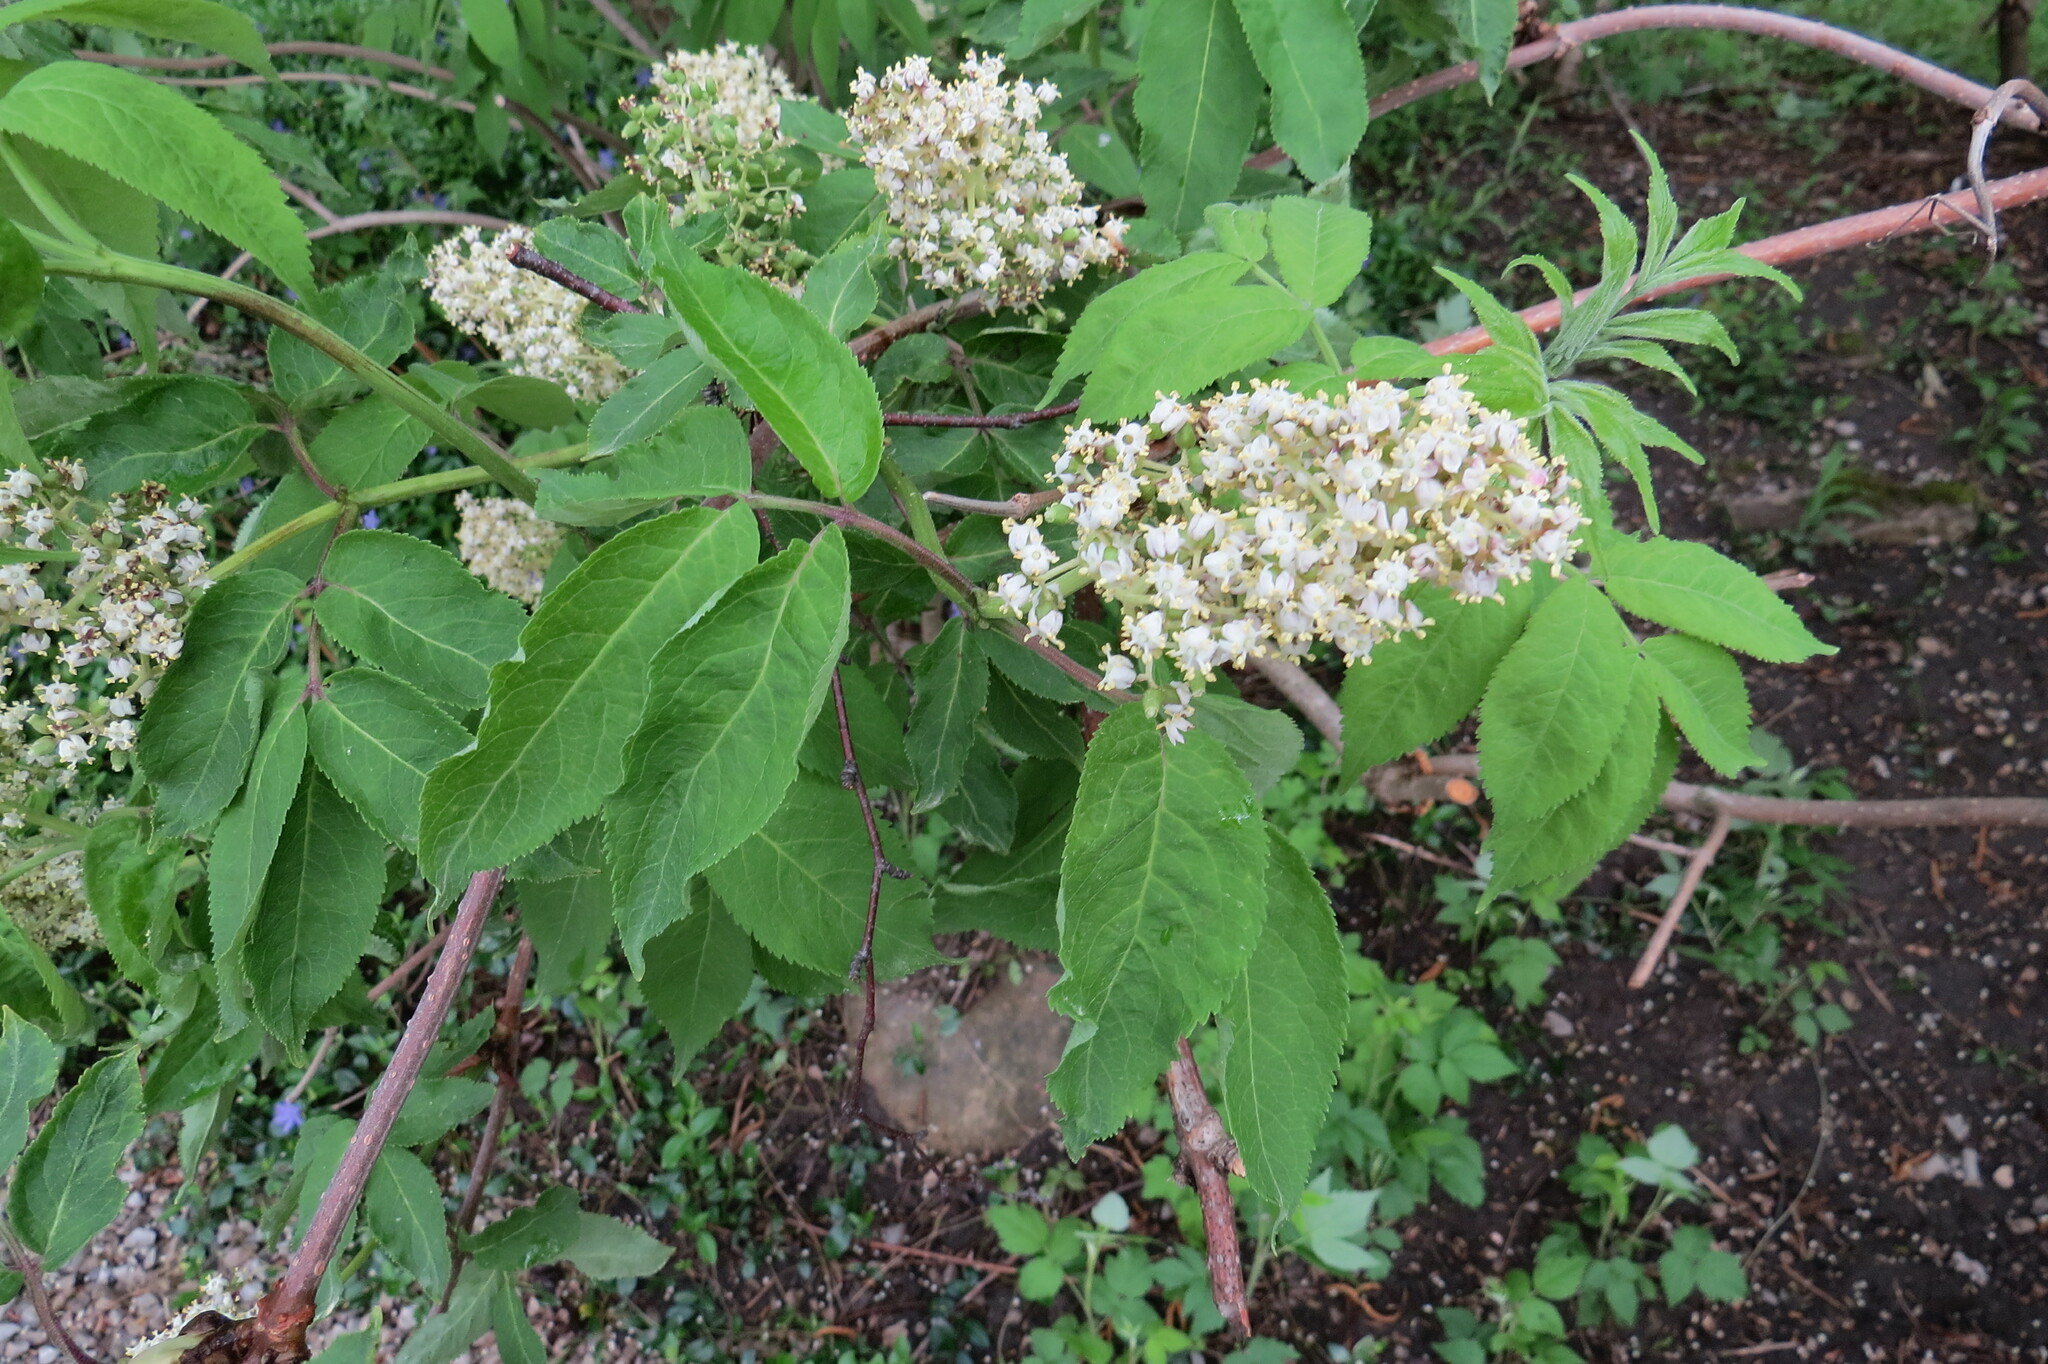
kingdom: Plantae
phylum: Tracheophyta
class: Magnoliopsida
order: Dipsacales
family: Viburnaceae
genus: Sambucus
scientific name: Sambucus racemosa
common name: Red-berried elder
